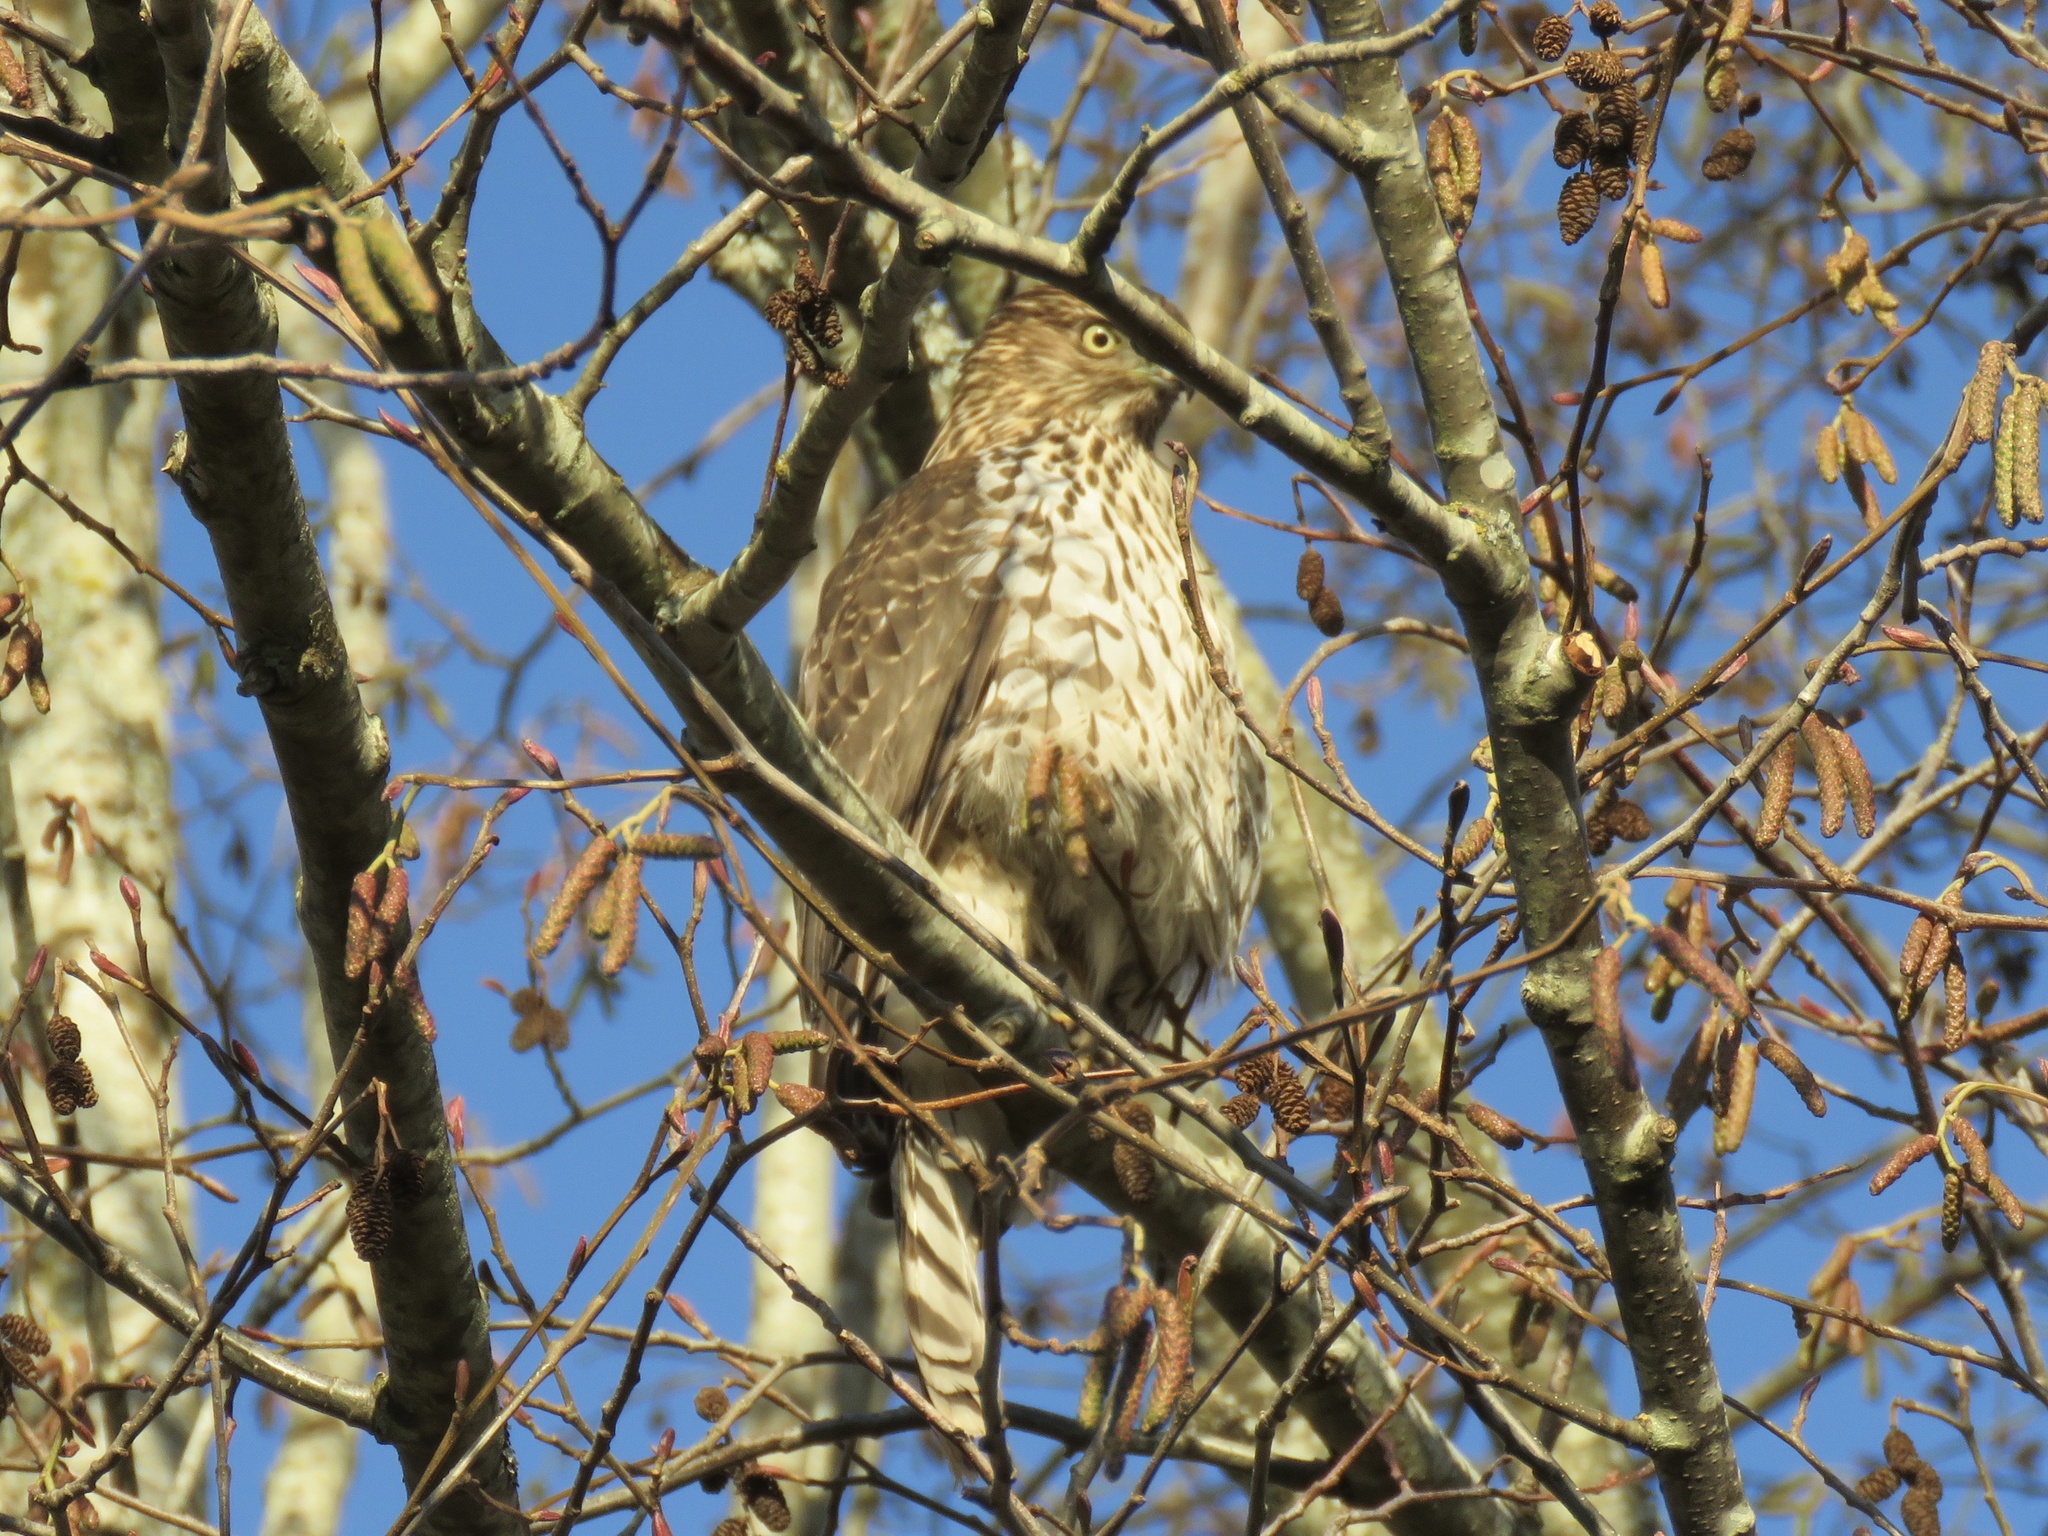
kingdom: Animalia
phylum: Chordata
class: Aves
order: Accipitriformes
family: Accipitridae
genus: Accipiter
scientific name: Accipiter cooperii
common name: Cooper's hawk
